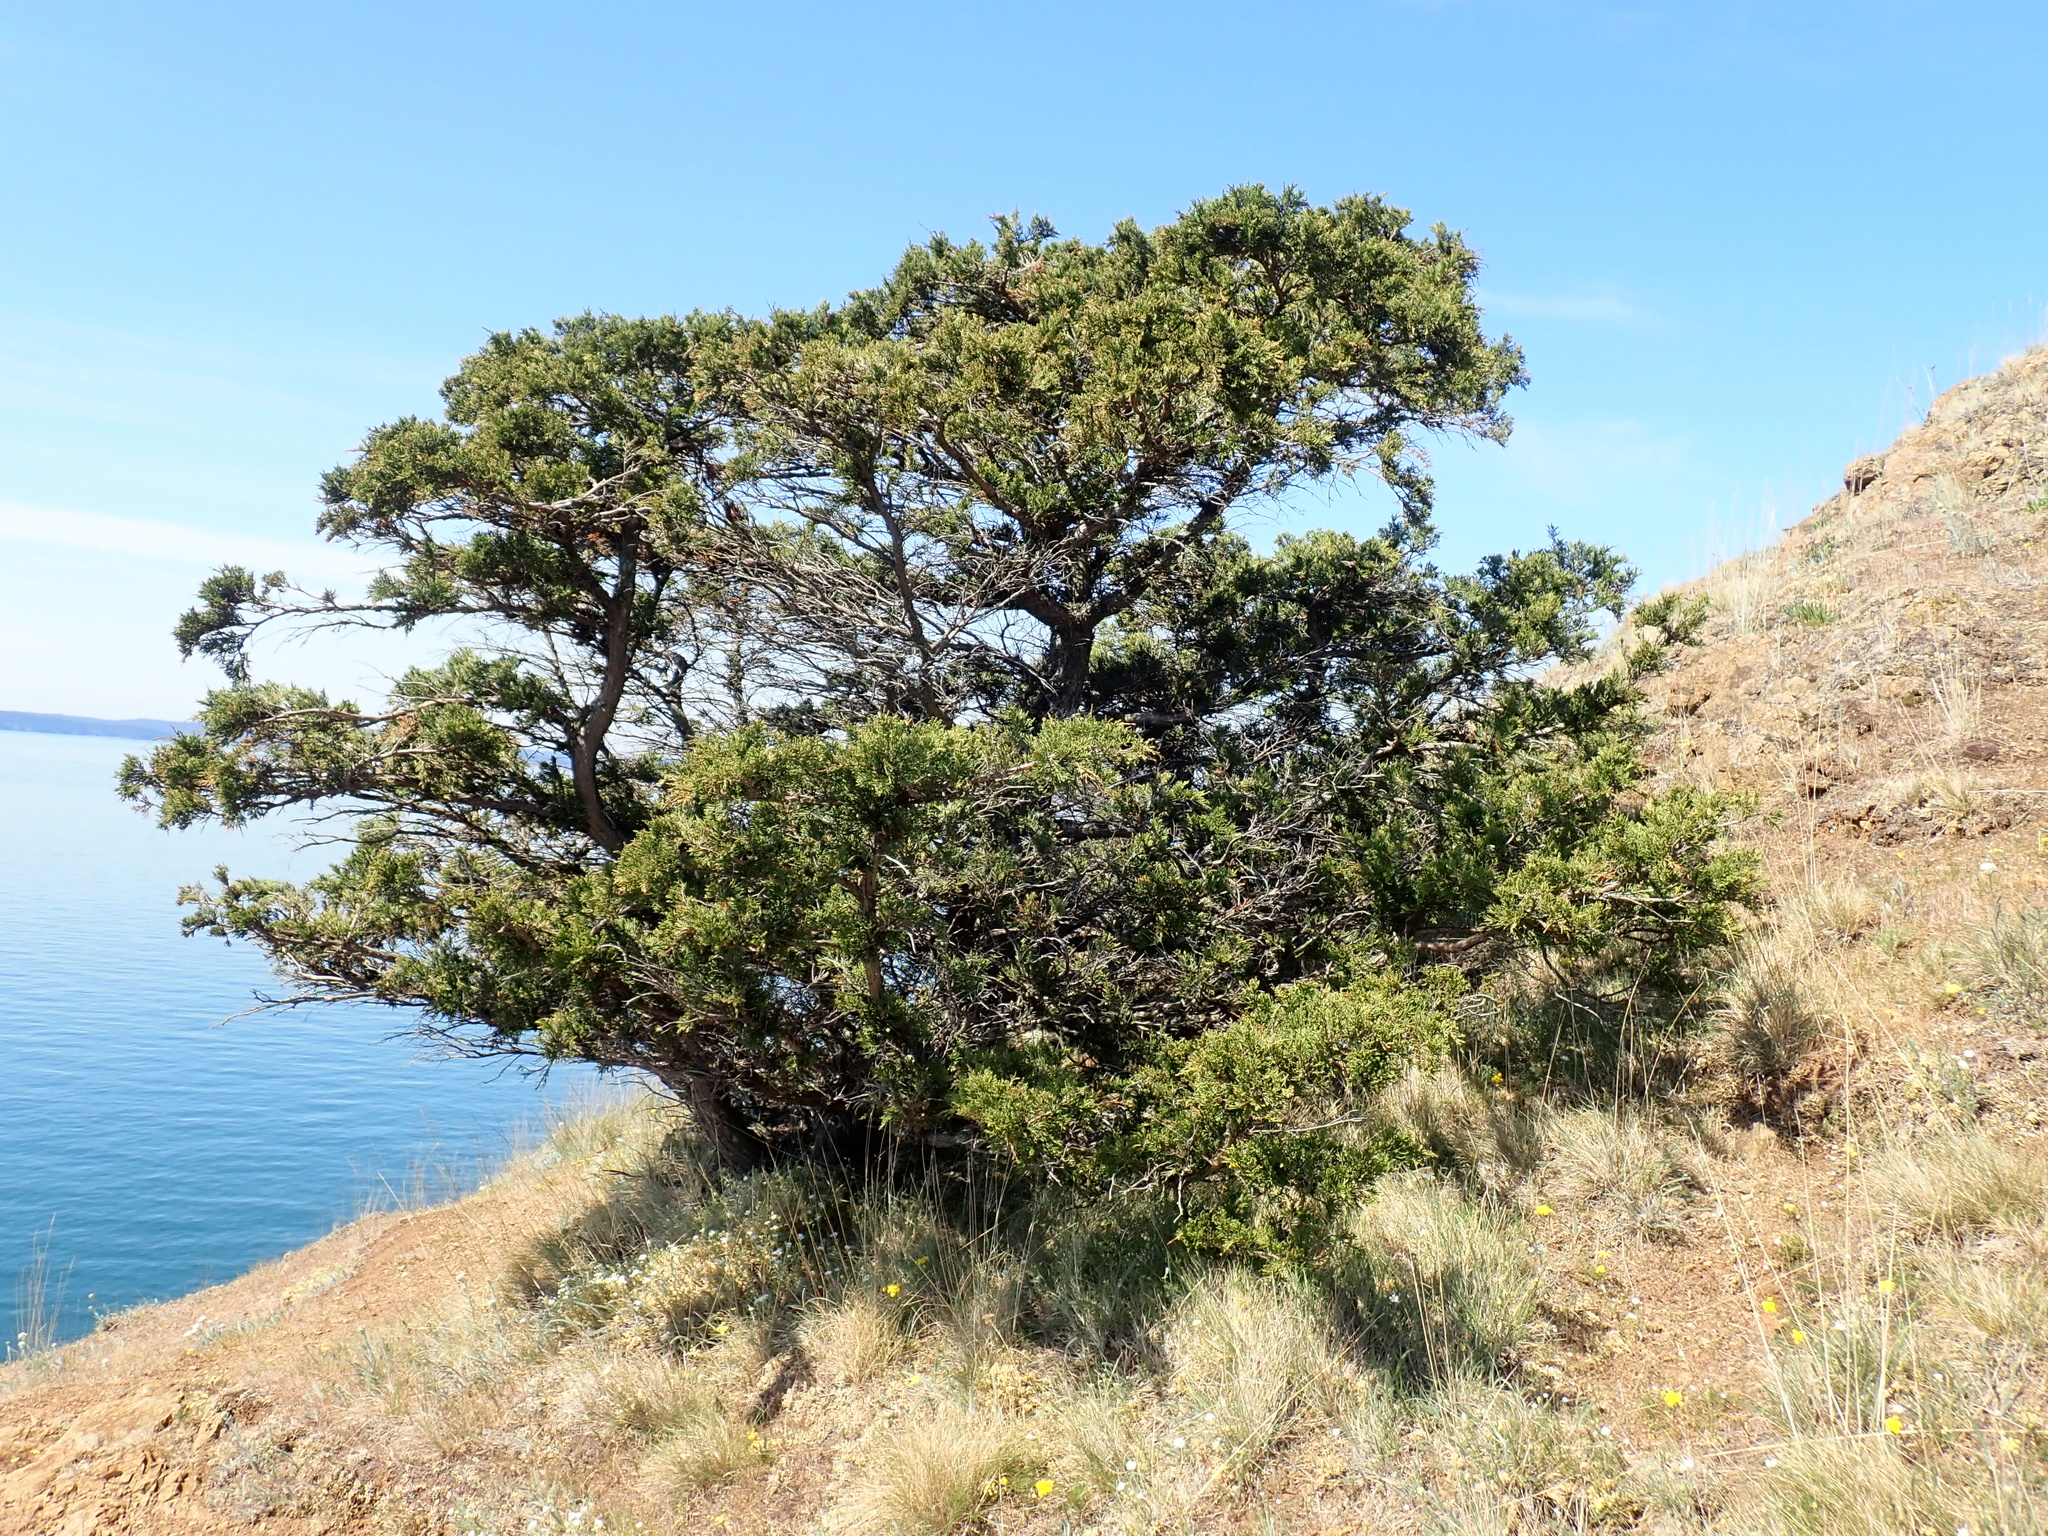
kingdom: Plantae
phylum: Tracheophyta
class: Pinopsida
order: Pinales
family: Cupressaceae
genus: Juniperus
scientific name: Juniperus scopulorum
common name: Rocky mountain juniper
